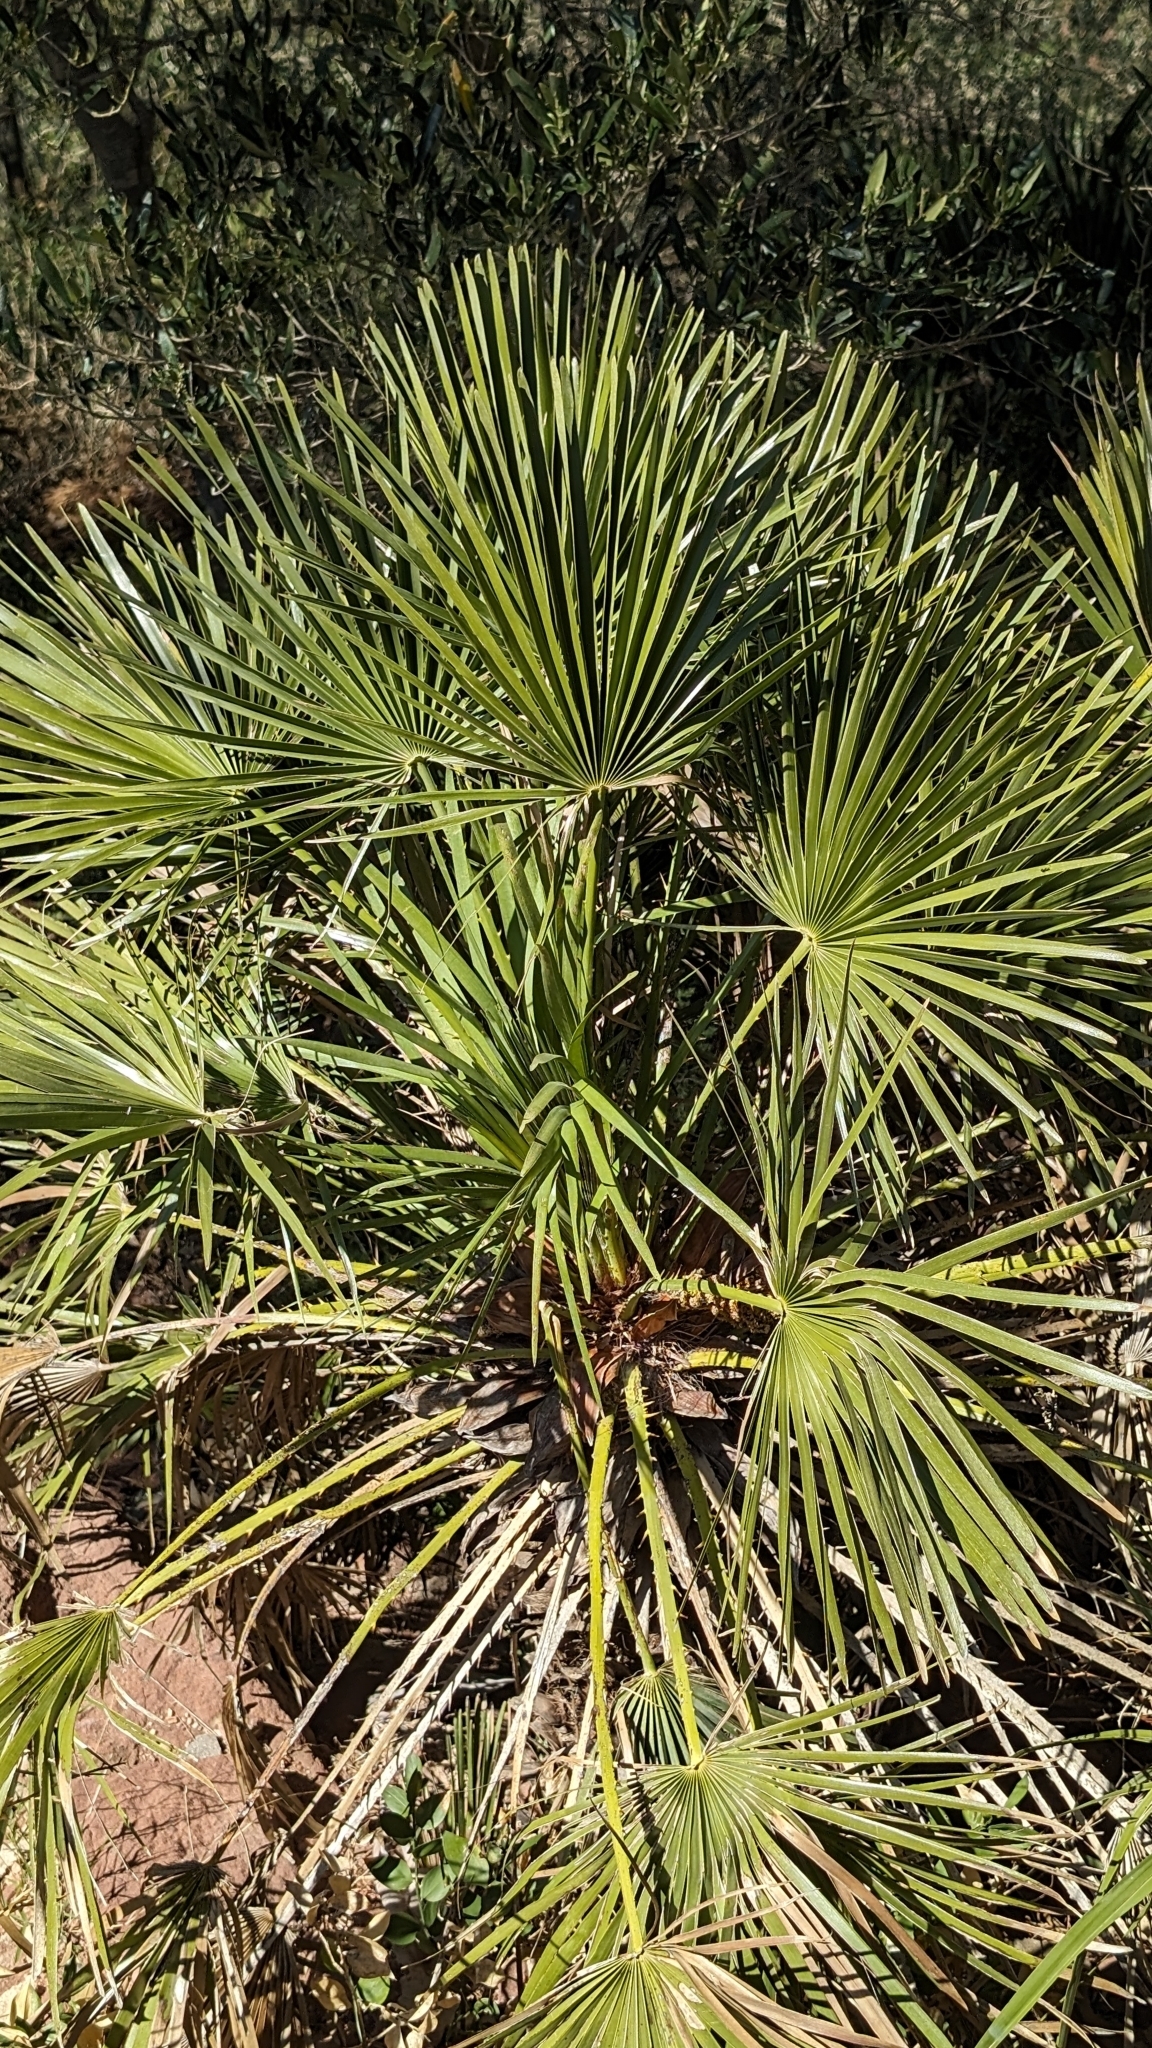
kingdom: Plantae
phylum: Tracheophyta
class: Liliopsida
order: Arecales
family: Arecaceae
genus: Chamaerops
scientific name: Chamaerops humilis
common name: Dwarf fan palm
